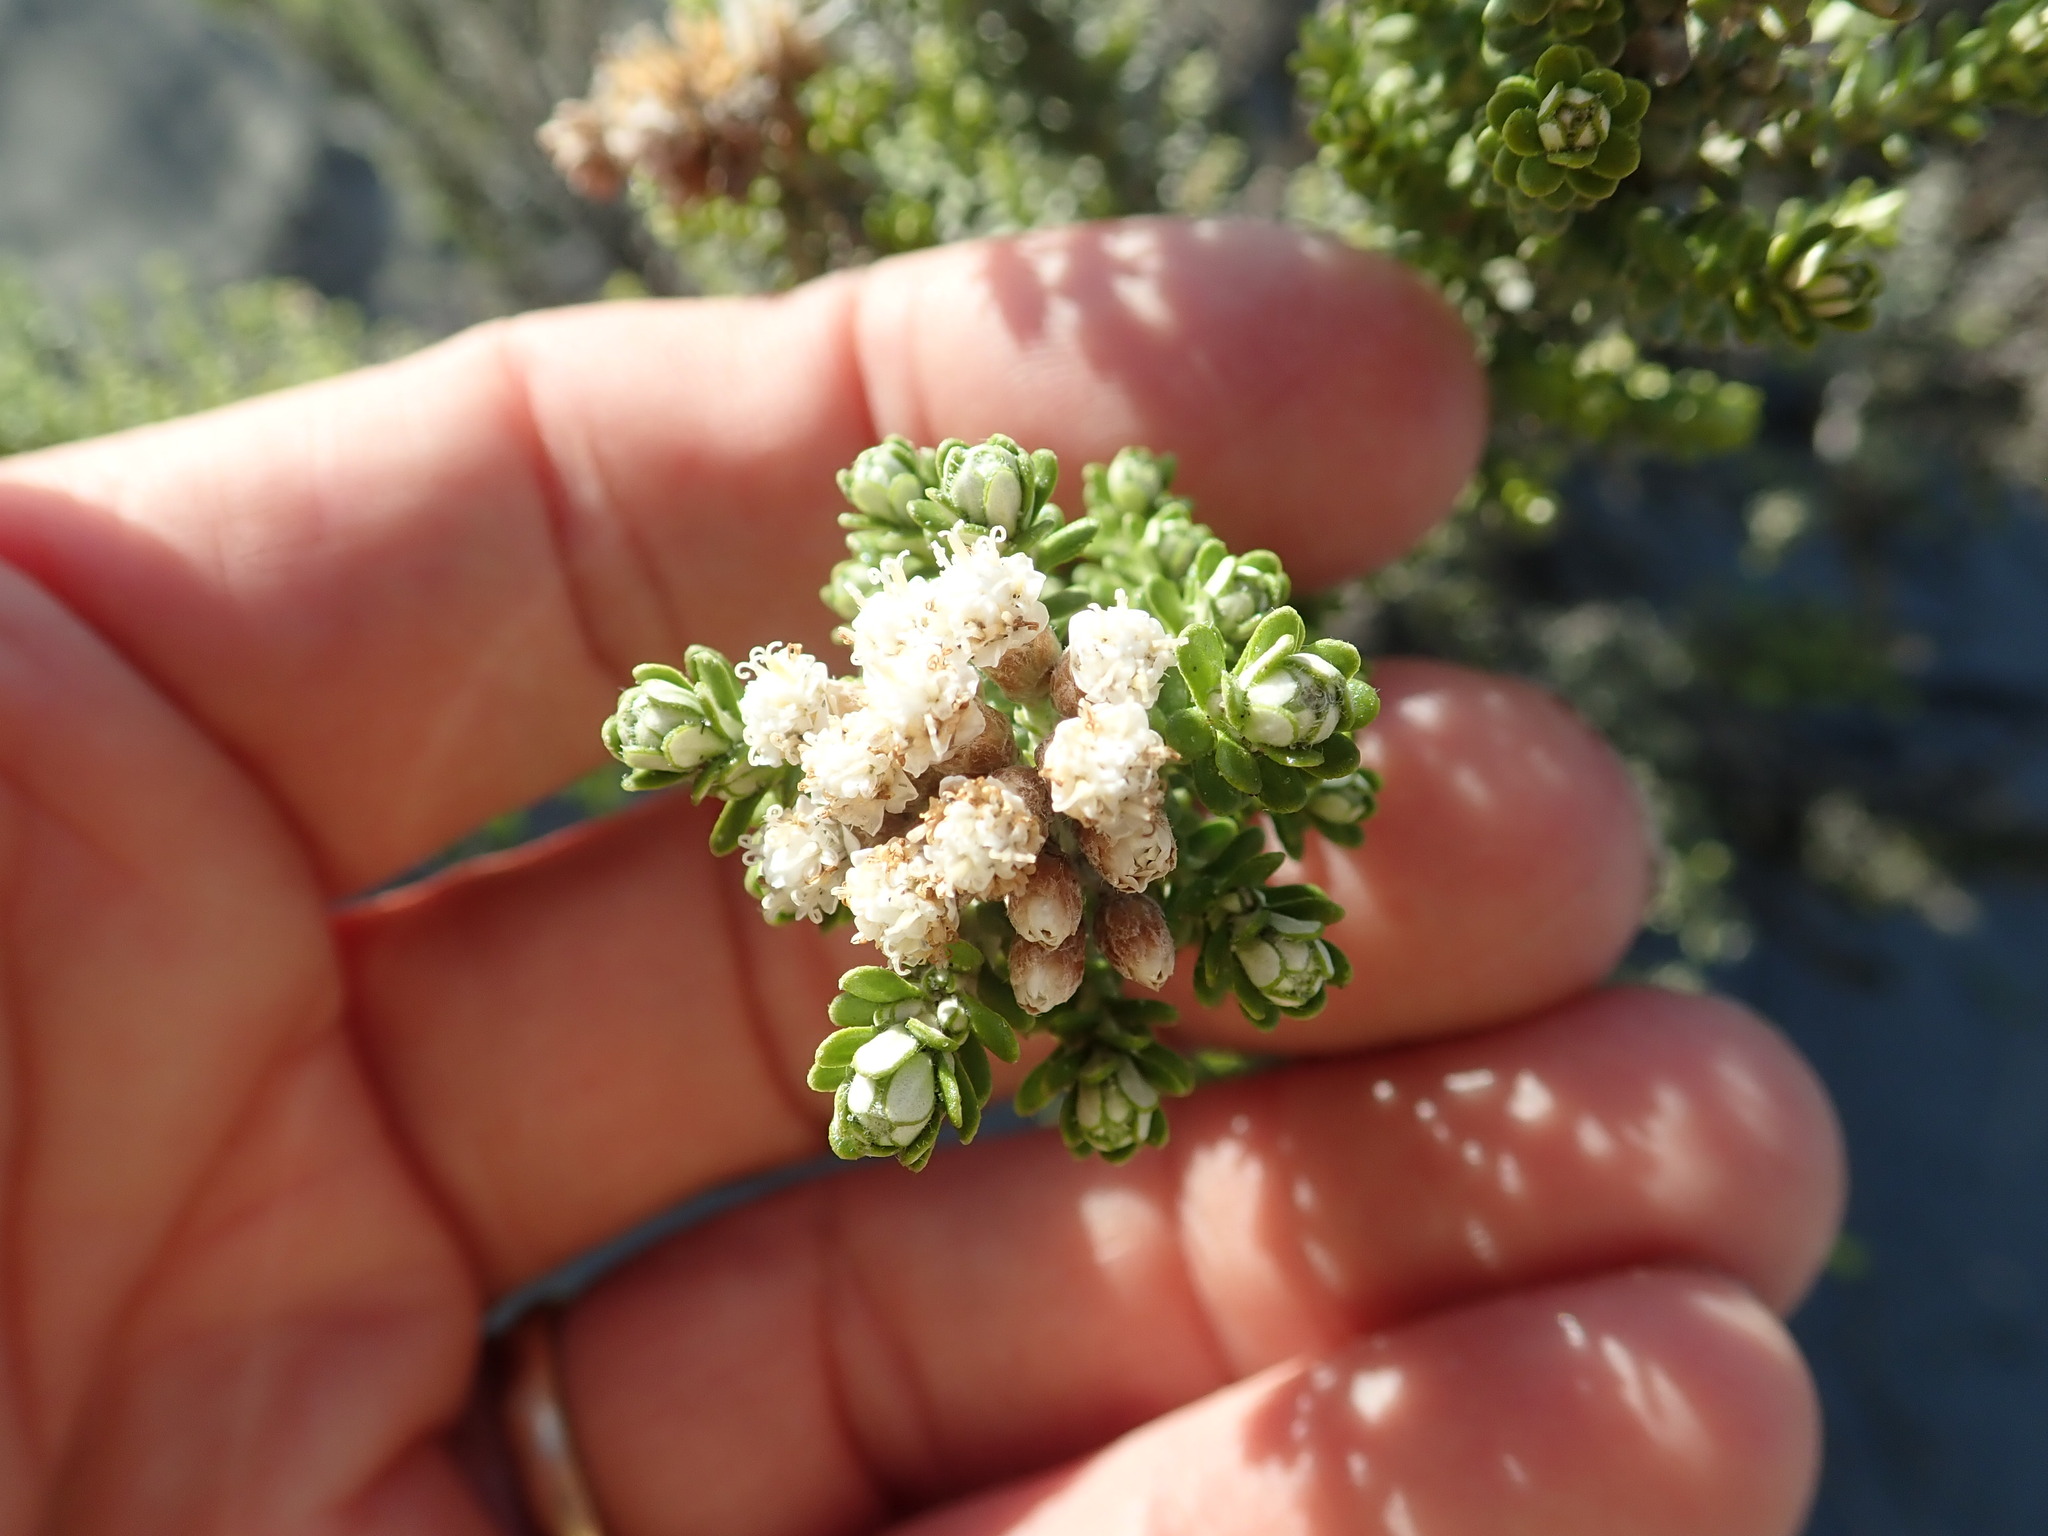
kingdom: Plantae
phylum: Tracheophyta
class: Magnoliopsida
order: Asterales
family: Asteraceae
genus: Ozothamnus
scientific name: Ozothamnus leptophyllus
